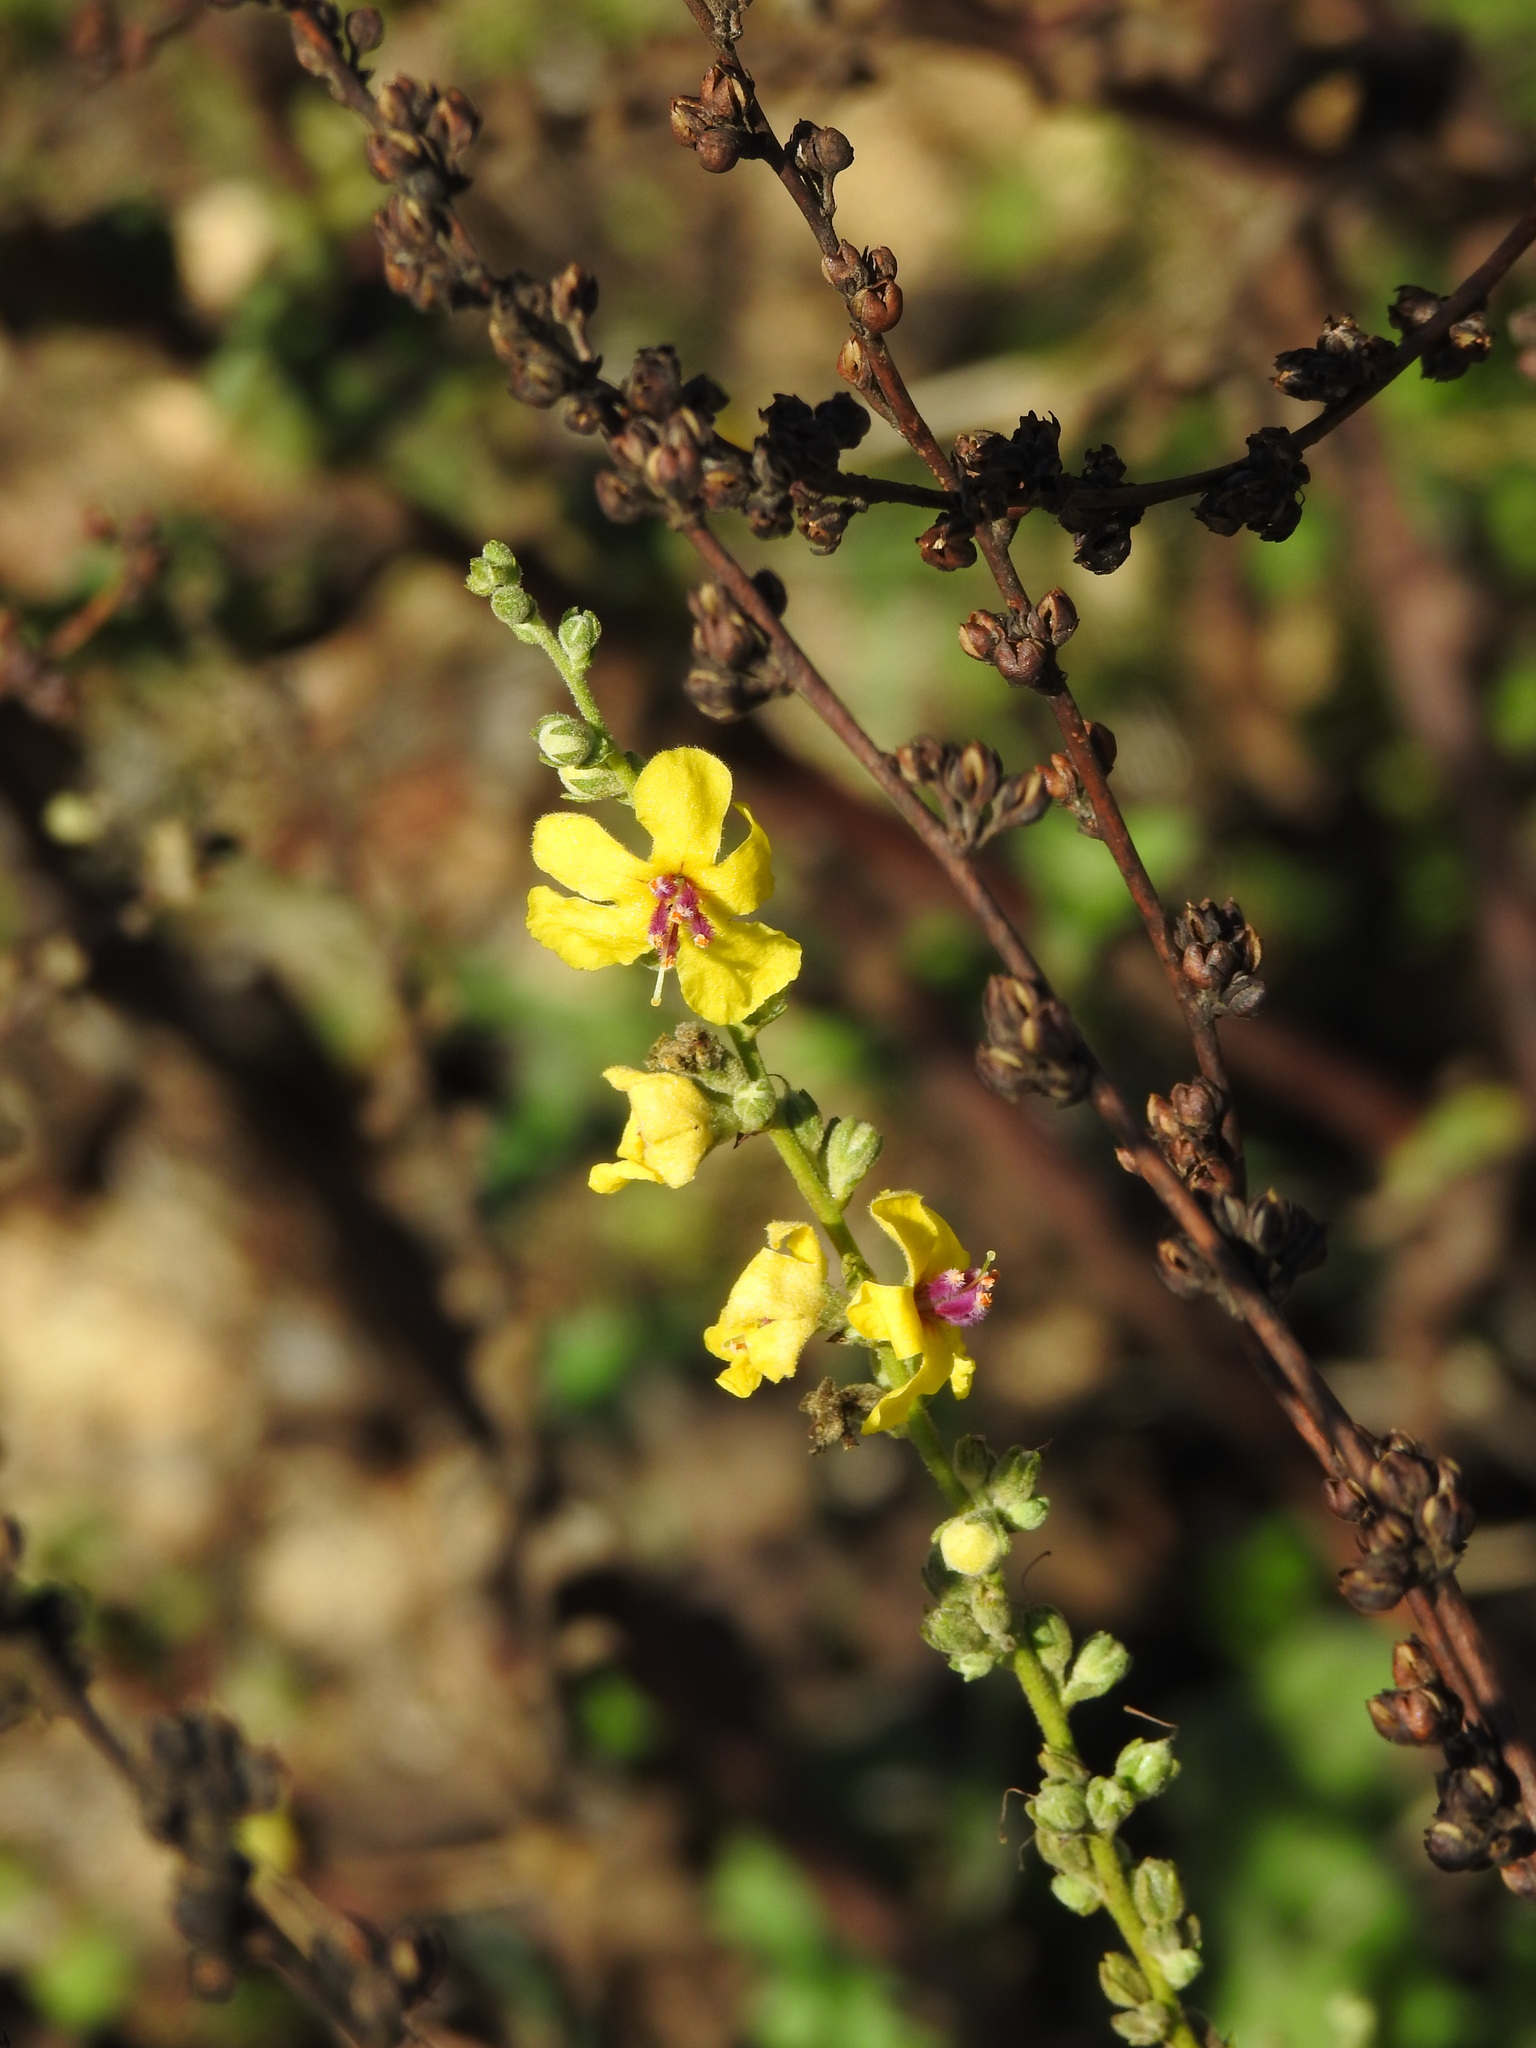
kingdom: Plantae
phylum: Tracheophyta
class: Magnoliopsida
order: Lamiales
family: Scrophulariaceae
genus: Verbascum
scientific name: Verbascum sinuatum
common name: Wavyleaf mullein
